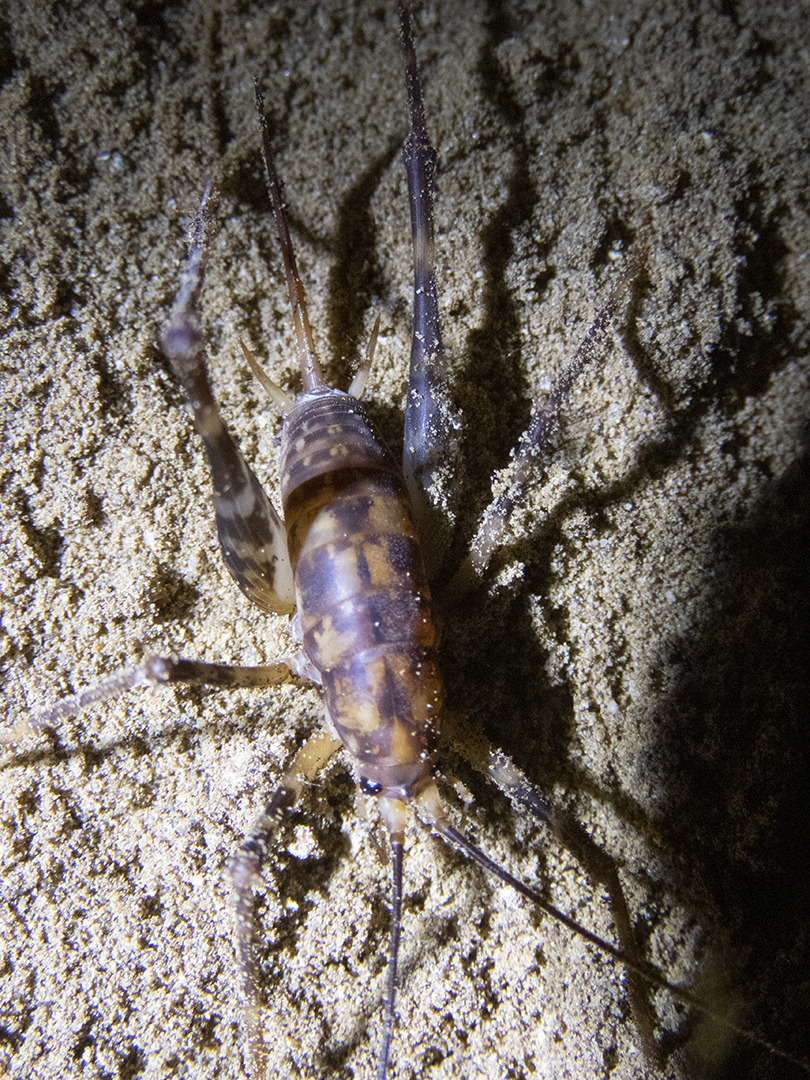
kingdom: Animalia
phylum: Arthropoda
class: Insecta
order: Orthoptera
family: Rhaphidophoridae
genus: Miotopus
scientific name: Miotopus richardsae
